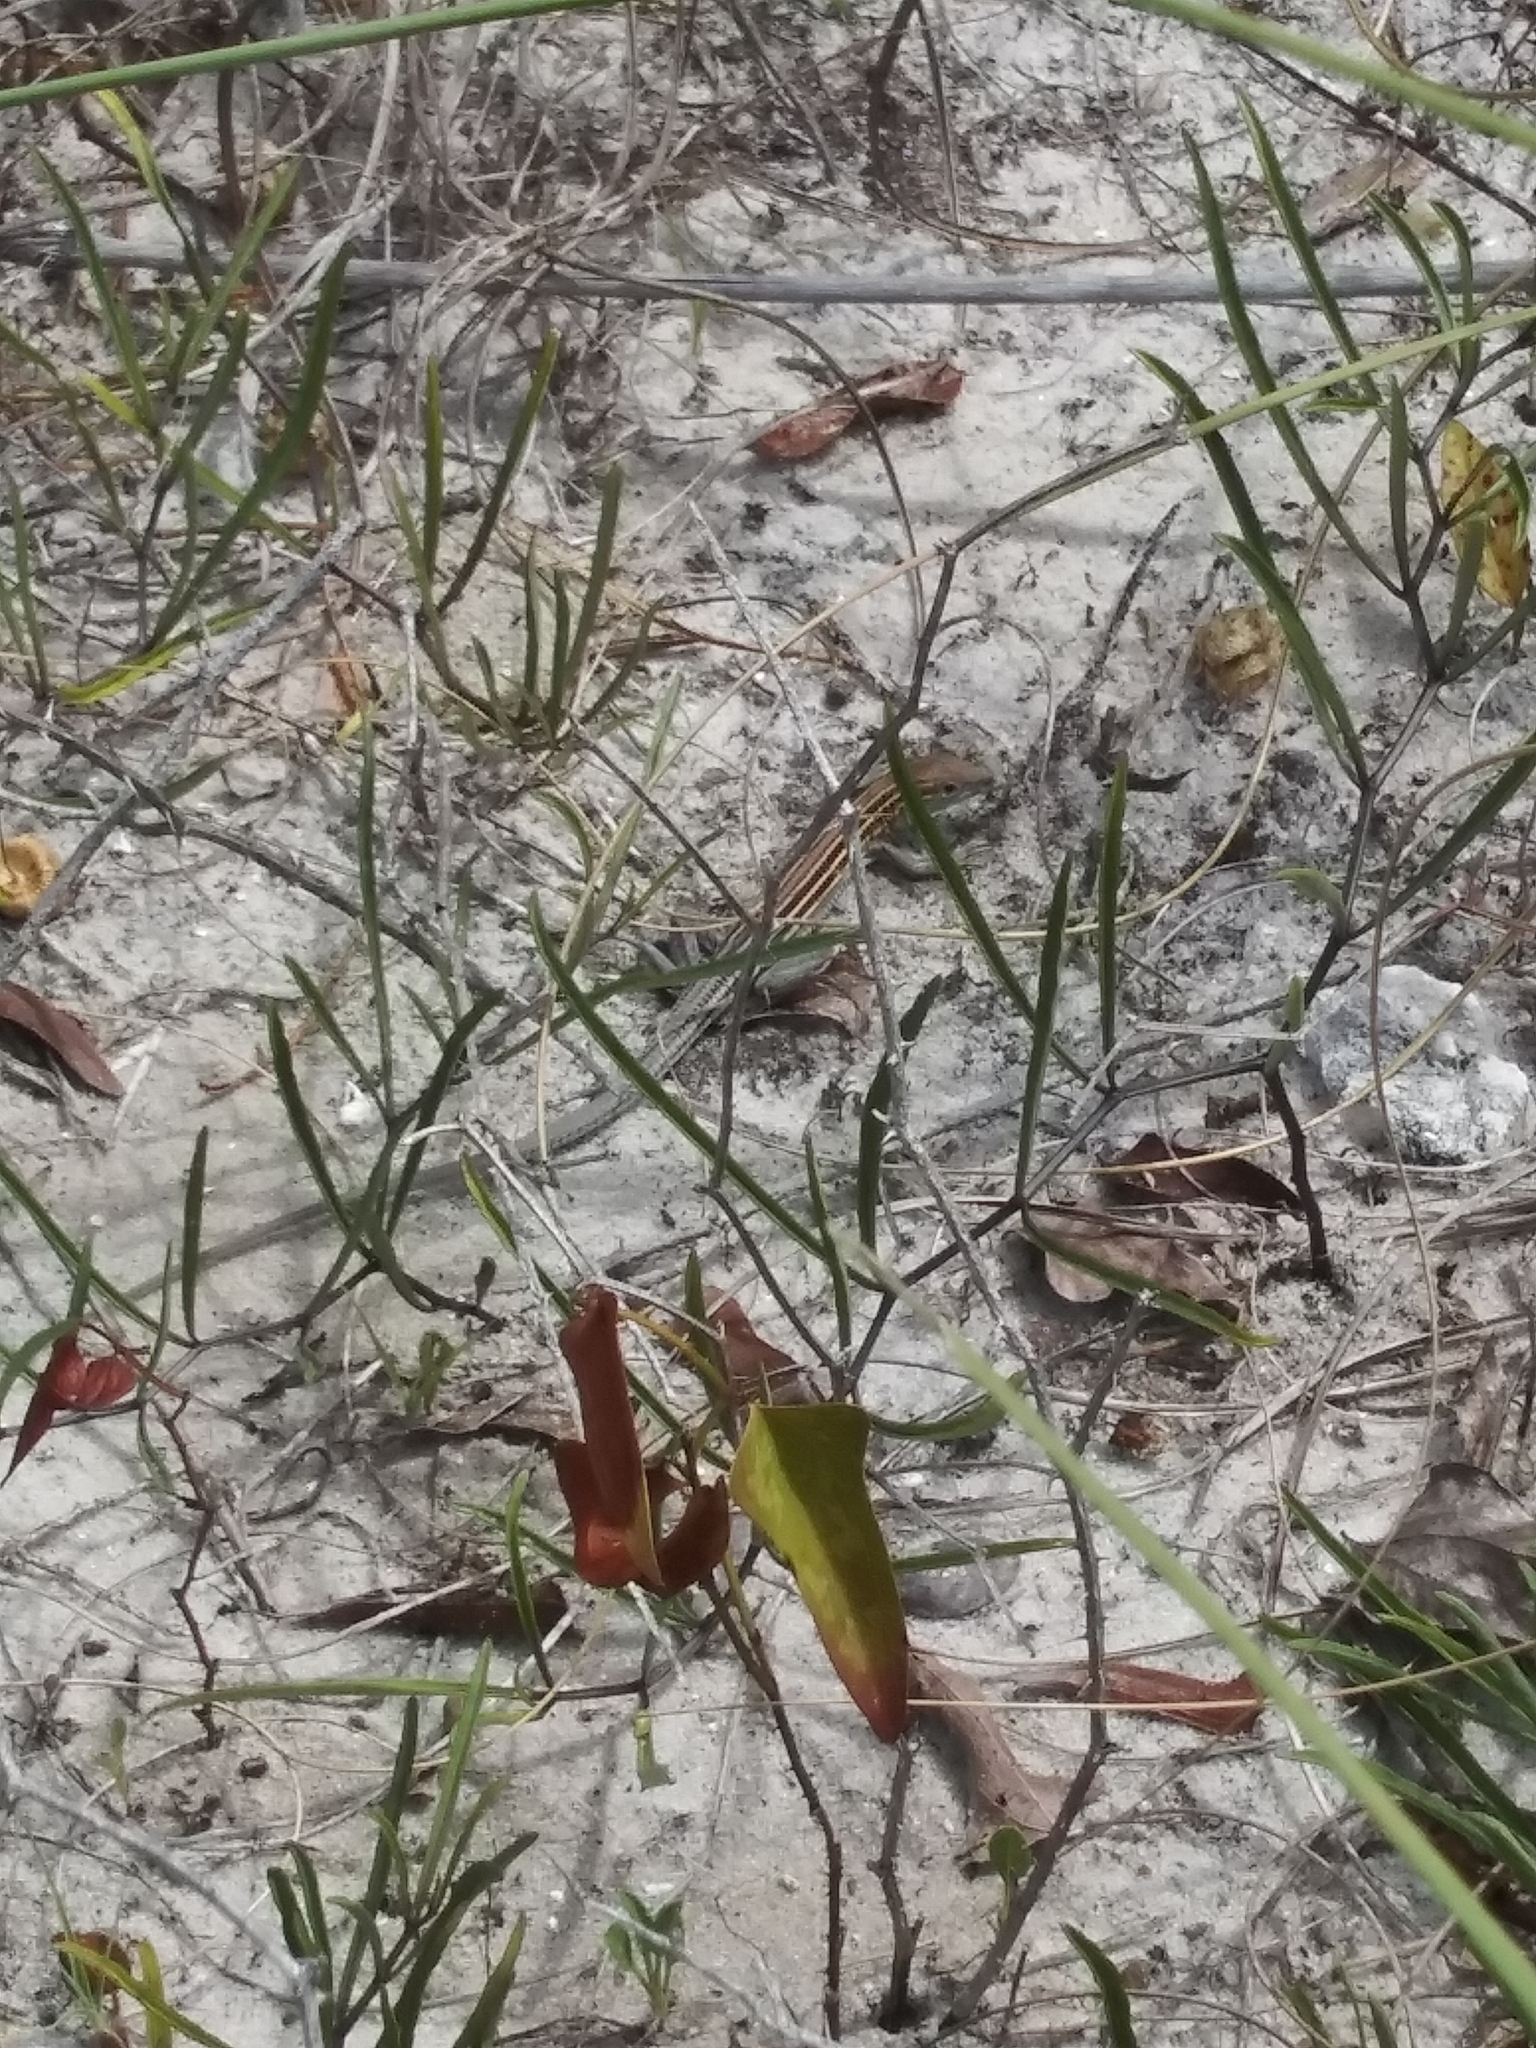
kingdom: Animalia
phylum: Chordata
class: Squamata
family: Teiidae
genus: Aspidoscelis
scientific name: Aspidoscelis sexlineatus
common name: Six-lined racerunner
